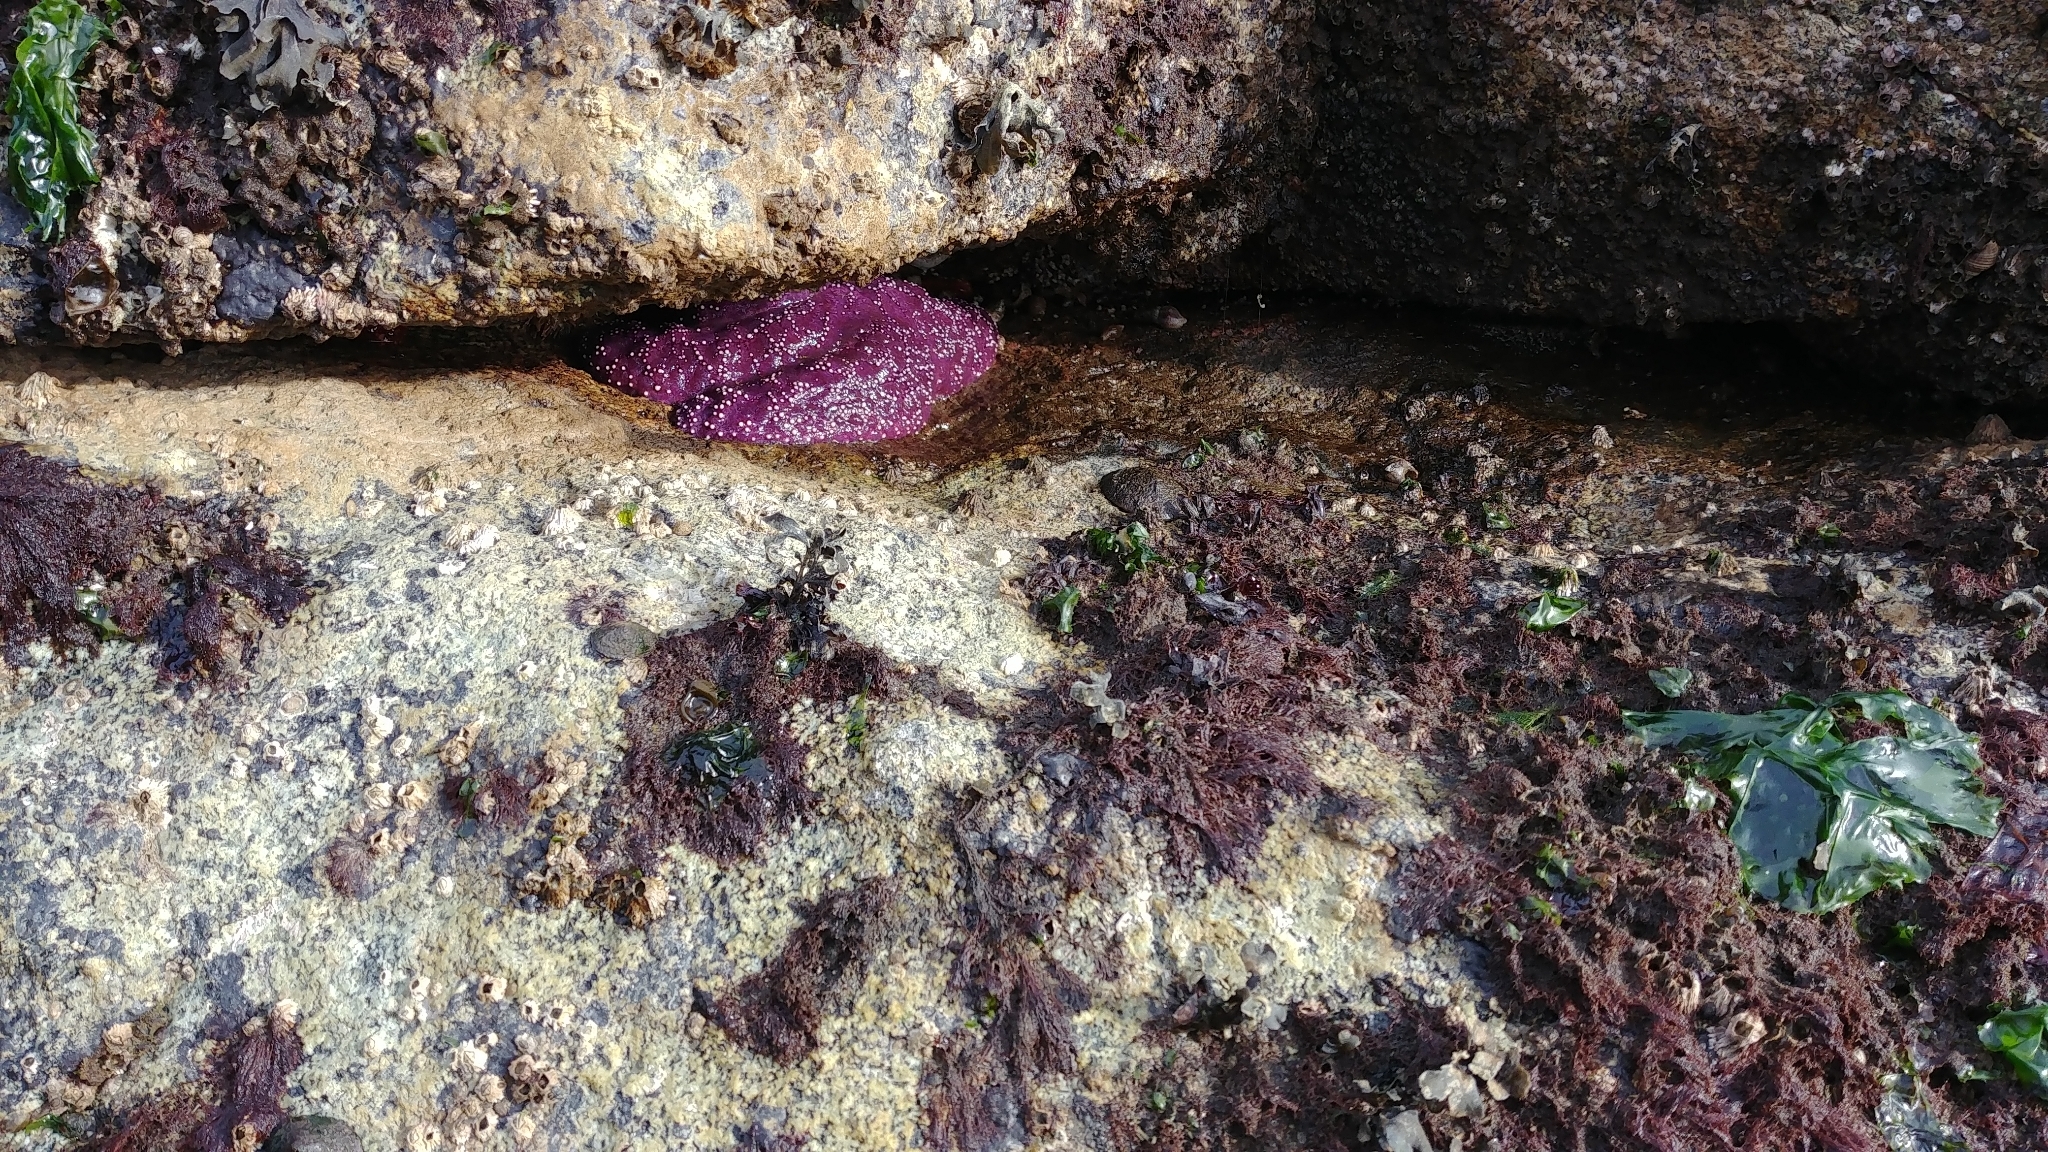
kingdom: Animalia
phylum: Echinodermata
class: Asteroidea
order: Forcipulatida
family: Asteriidae
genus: Pisaster
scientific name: Pisaster ochraceus
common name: Ochre stars
